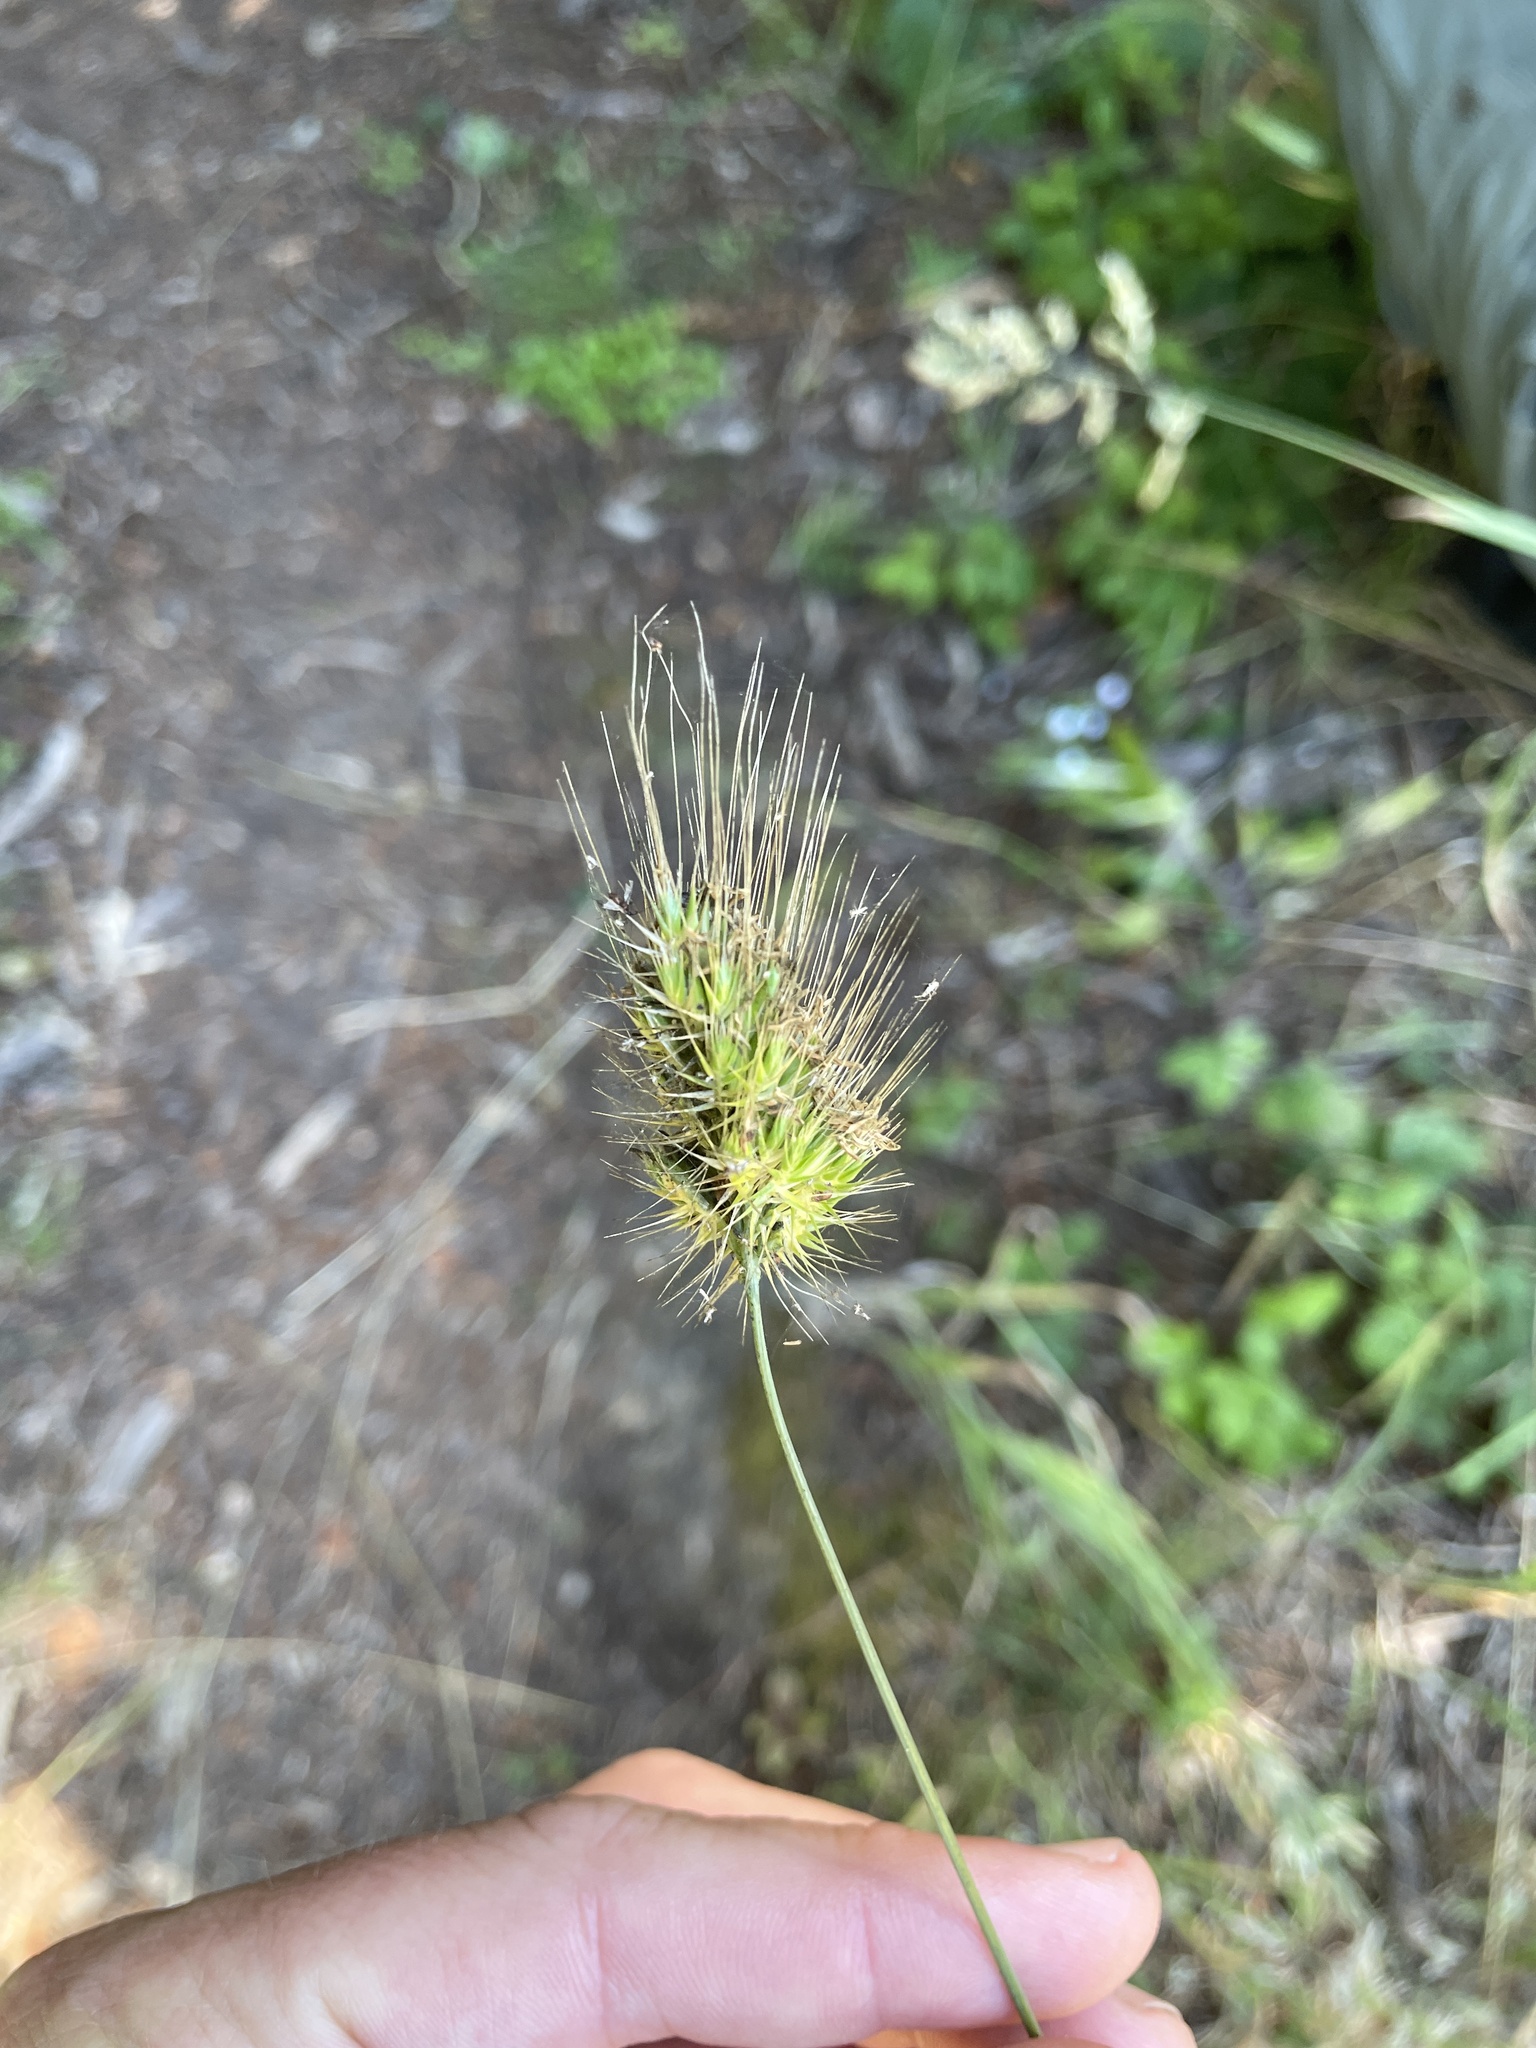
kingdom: Plantae
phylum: Tracheophyta
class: Liliopsida
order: Poales
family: Poaceae
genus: Cynosurus
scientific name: Cynosurus echinatus
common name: Rough dog's-tail
